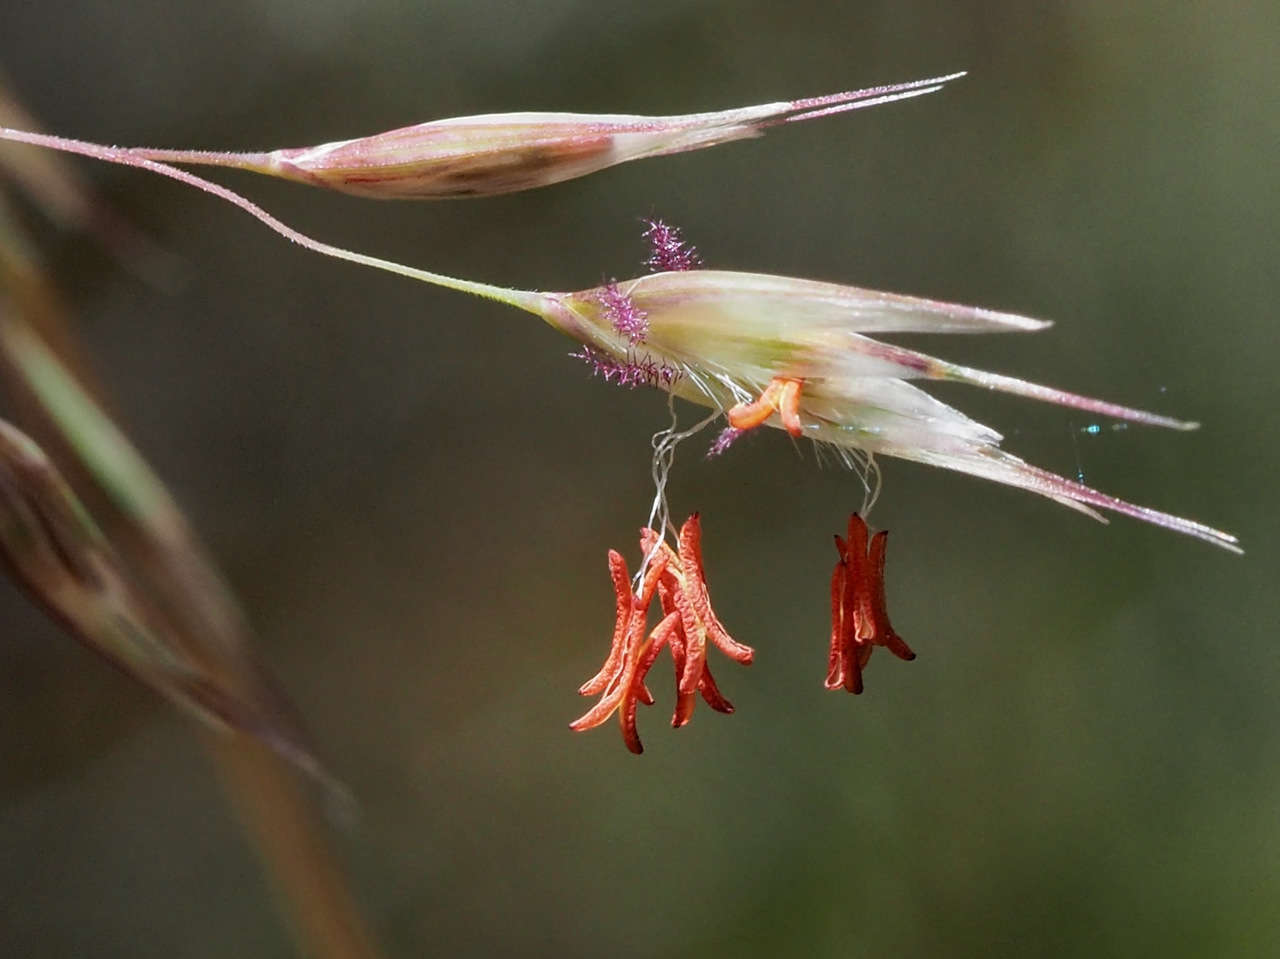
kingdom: Plantae
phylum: Tracheophyta
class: Liliopsida
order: Poales
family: Poaceae
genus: Rytidosperma
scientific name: Rytidosperma pallidum
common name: Red-anther wallaby grass
